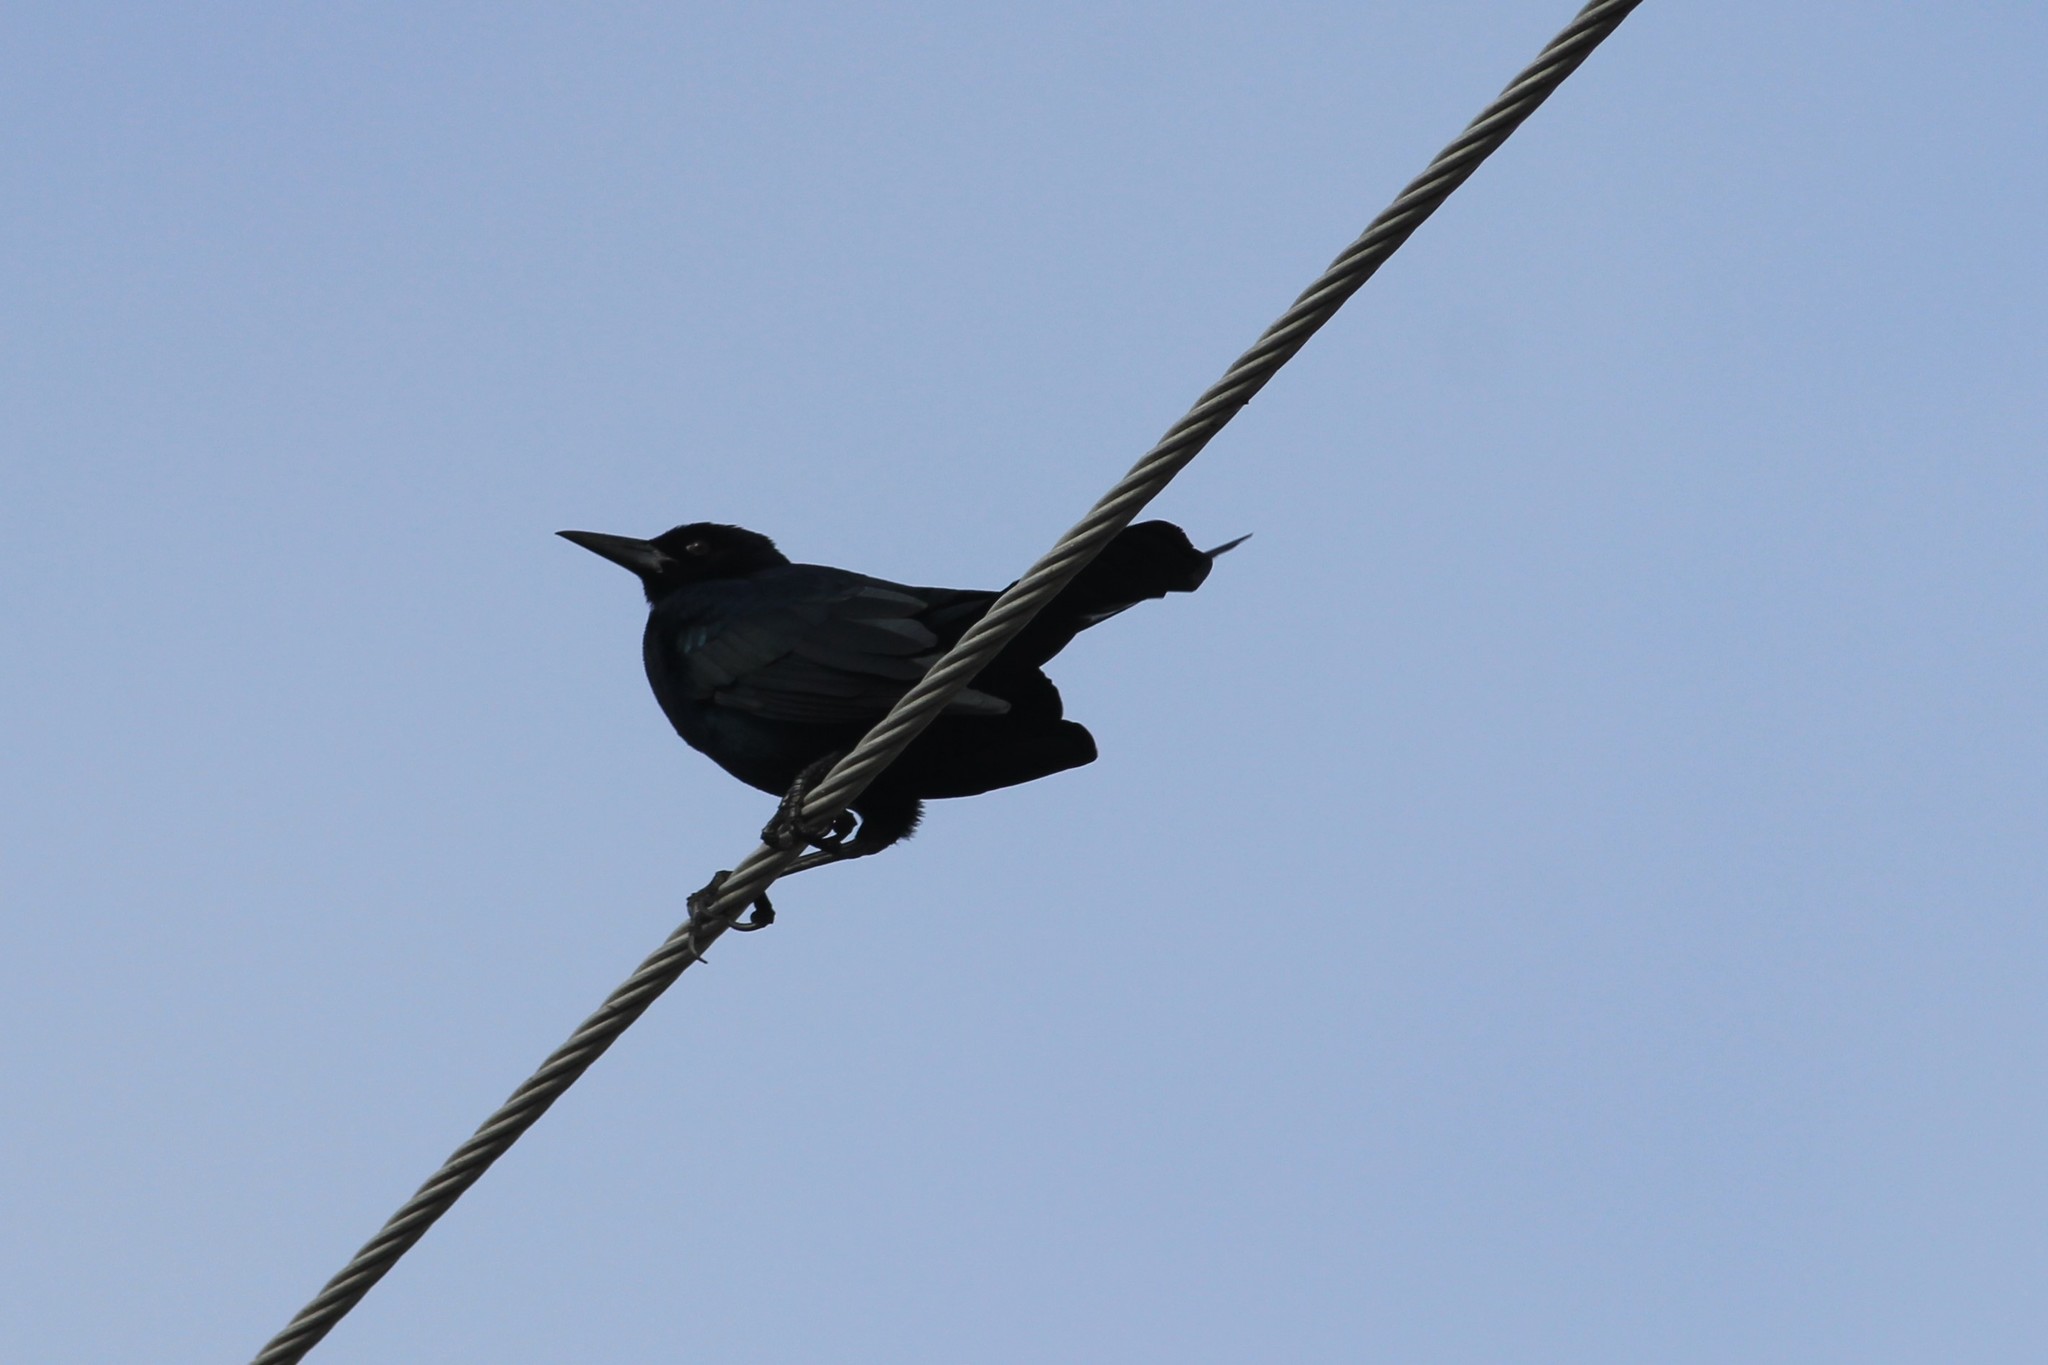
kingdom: Animalia
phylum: Chordata
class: Aves
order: Passeriformes
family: Icteridae
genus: Quiscalus
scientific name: Quiscalus major
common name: Boat-tailed grackle
